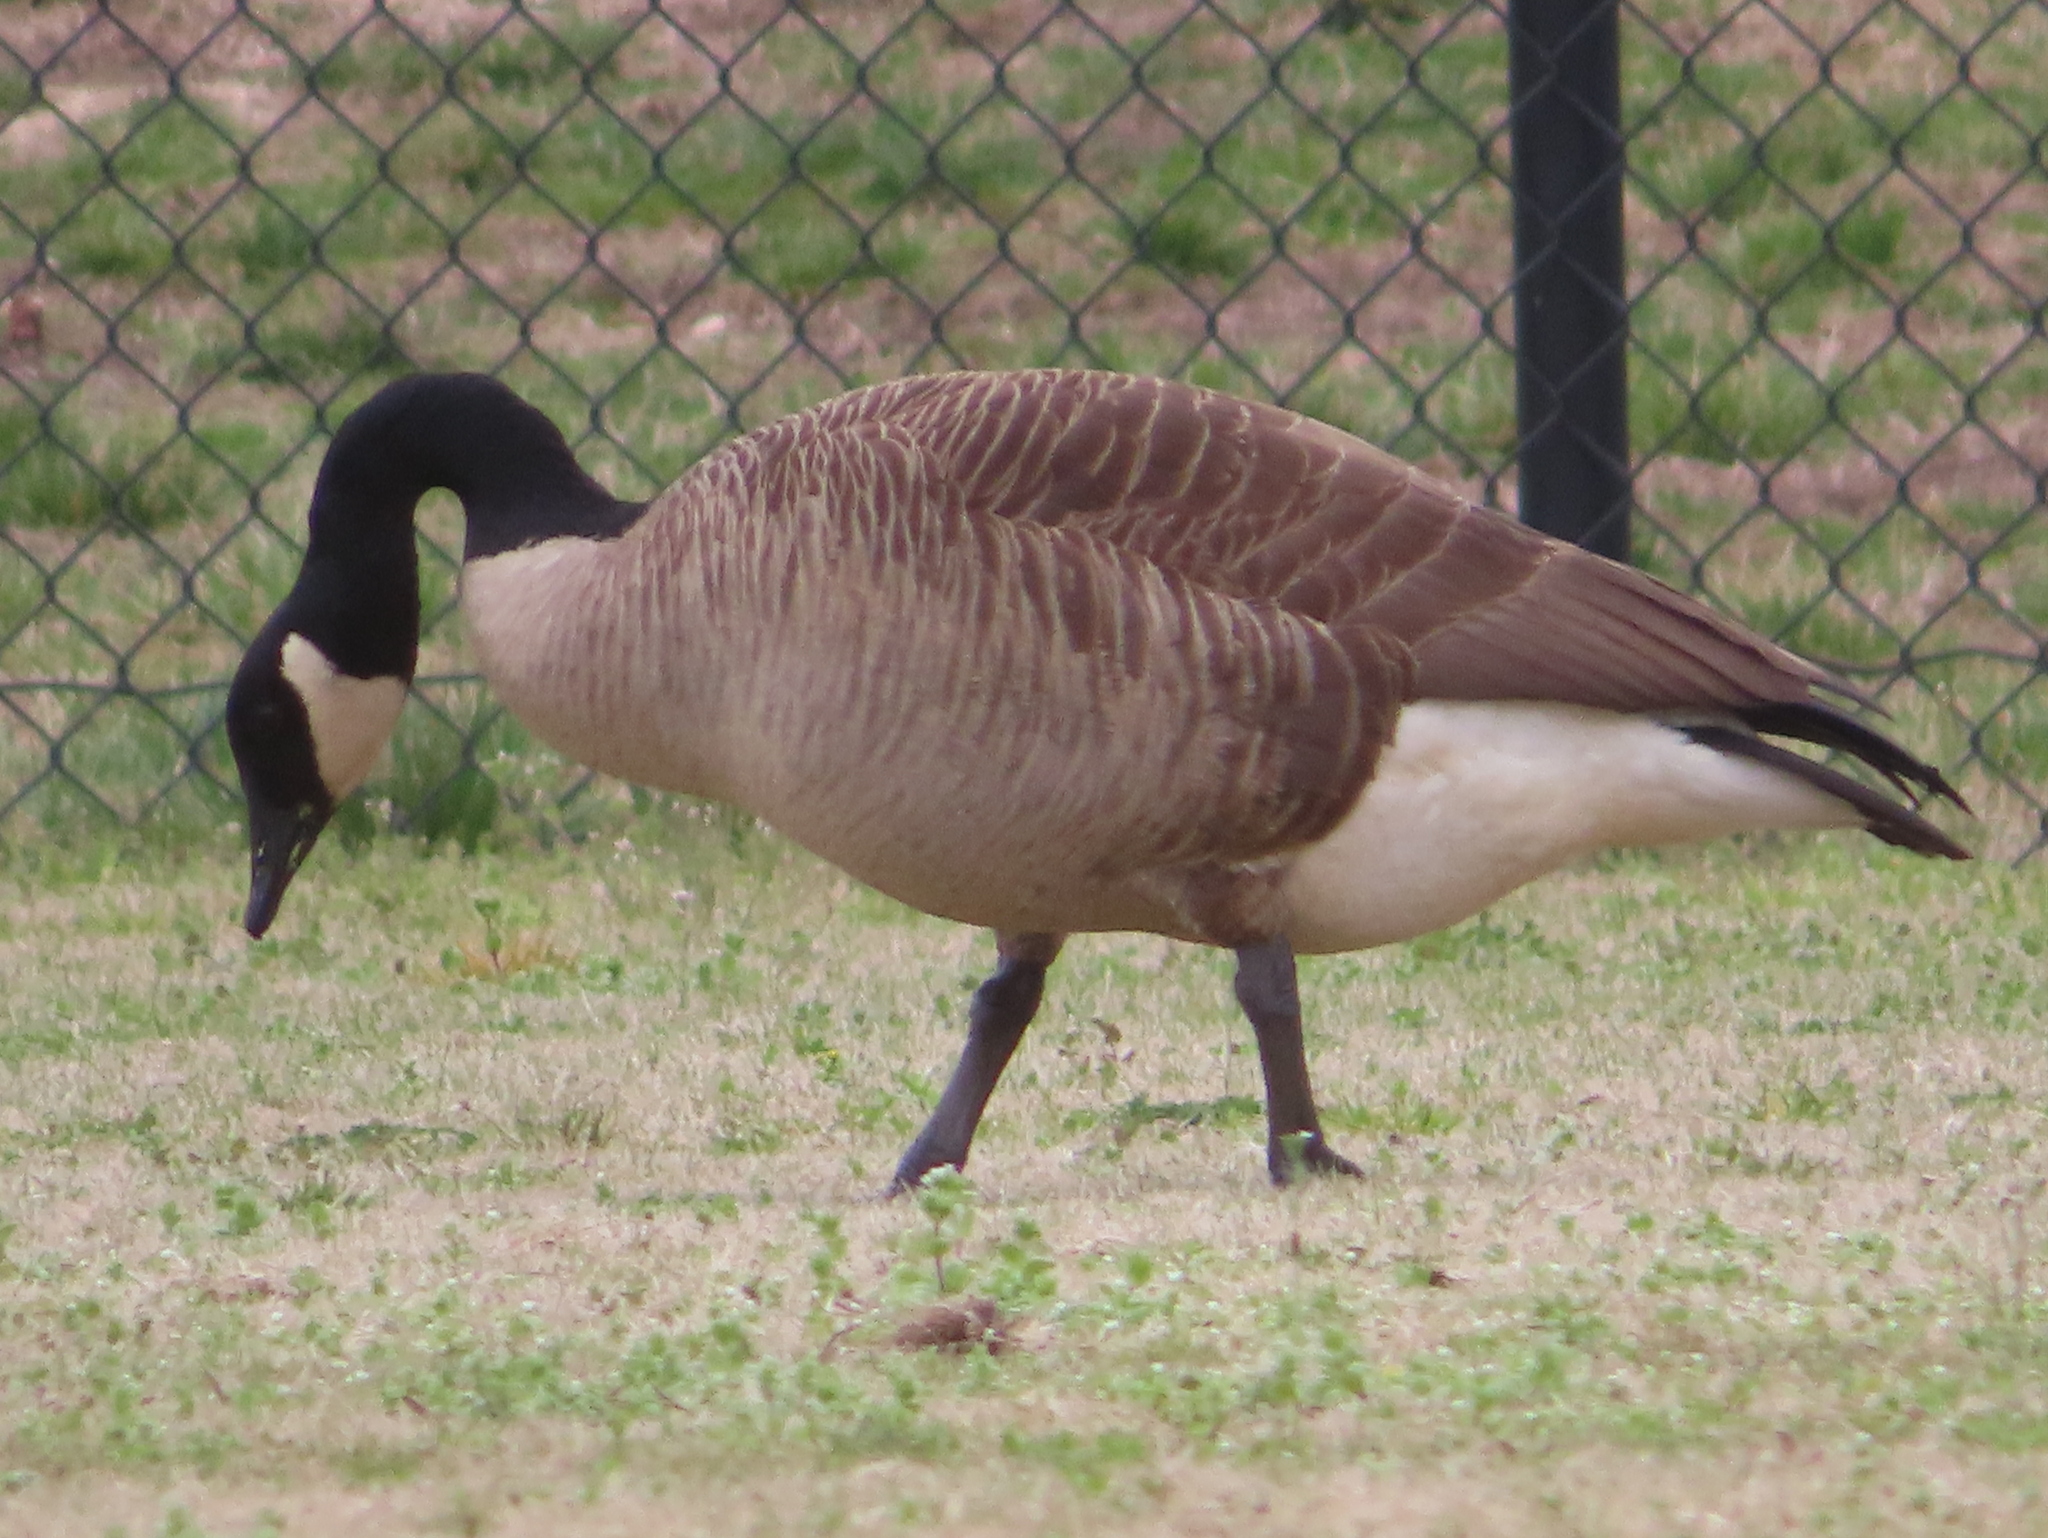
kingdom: Animalia
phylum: Chordata
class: Aves
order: Anseriformes
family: Anatidae
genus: Branta
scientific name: Branta canadensis
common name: Canada goose
